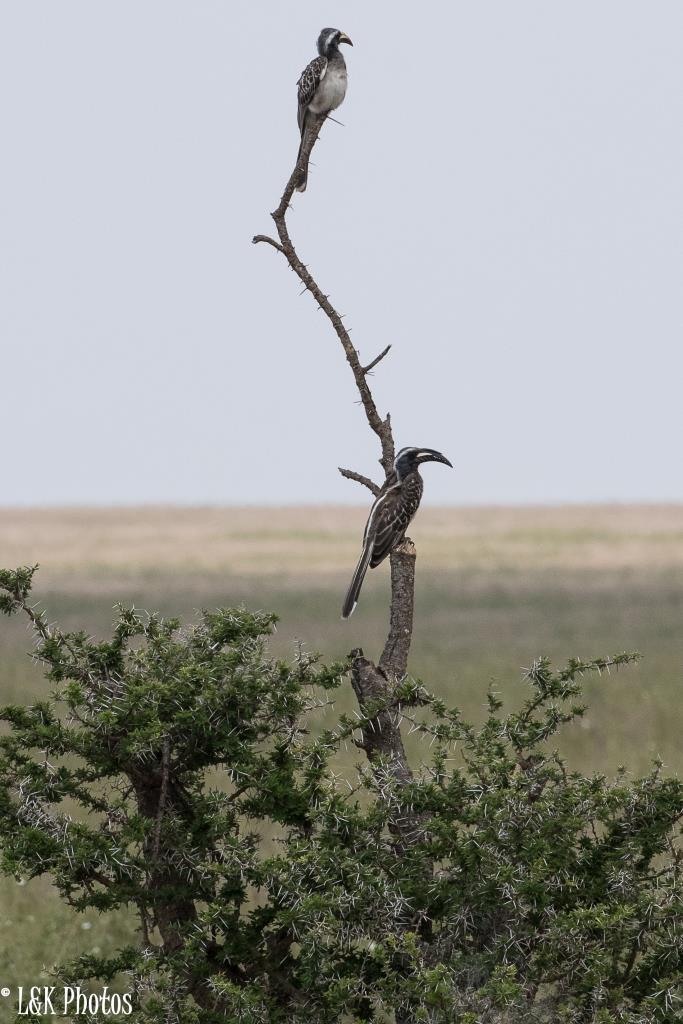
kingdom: Animalia
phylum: Chordata
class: Aves
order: Bucerotiformes
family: Bucerotidae
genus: Lophoceros
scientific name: Lophoceros nasutus
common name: African grey hornbill
